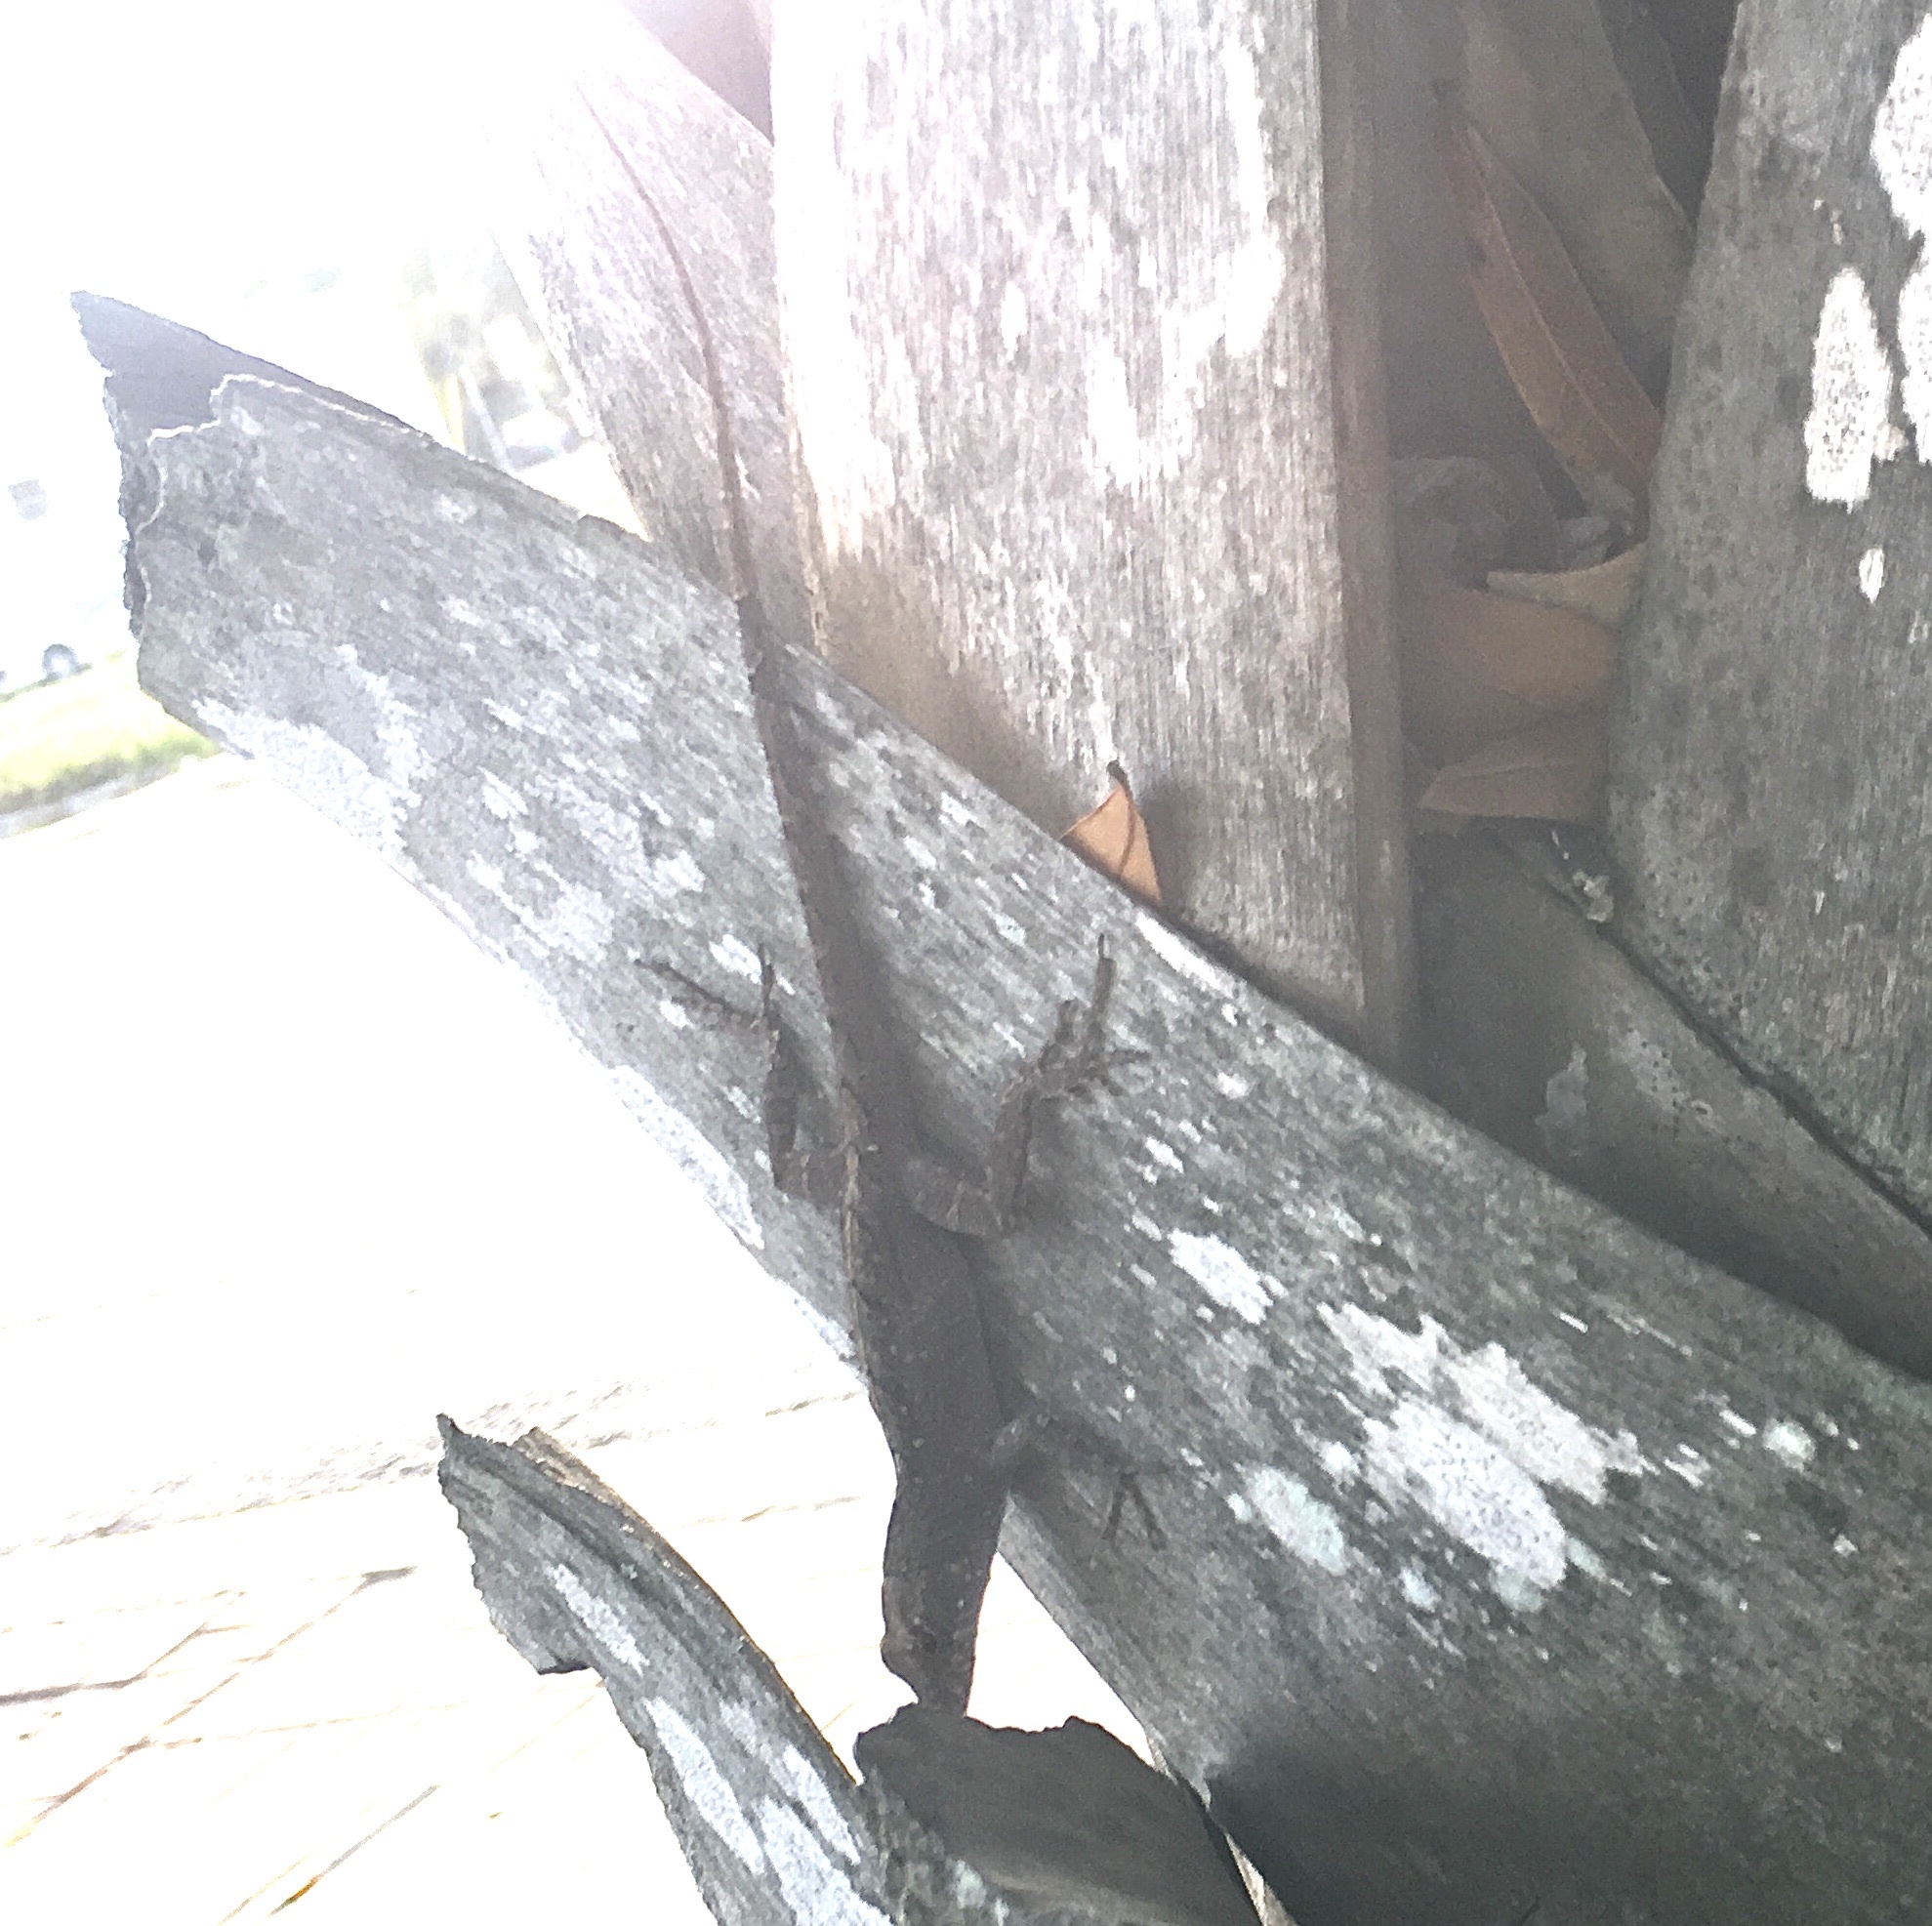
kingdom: Animalia
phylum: Chordata
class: Squamata
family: Dactyloidae
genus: Anolis
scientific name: Anolis sagrei
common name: Brown anole
